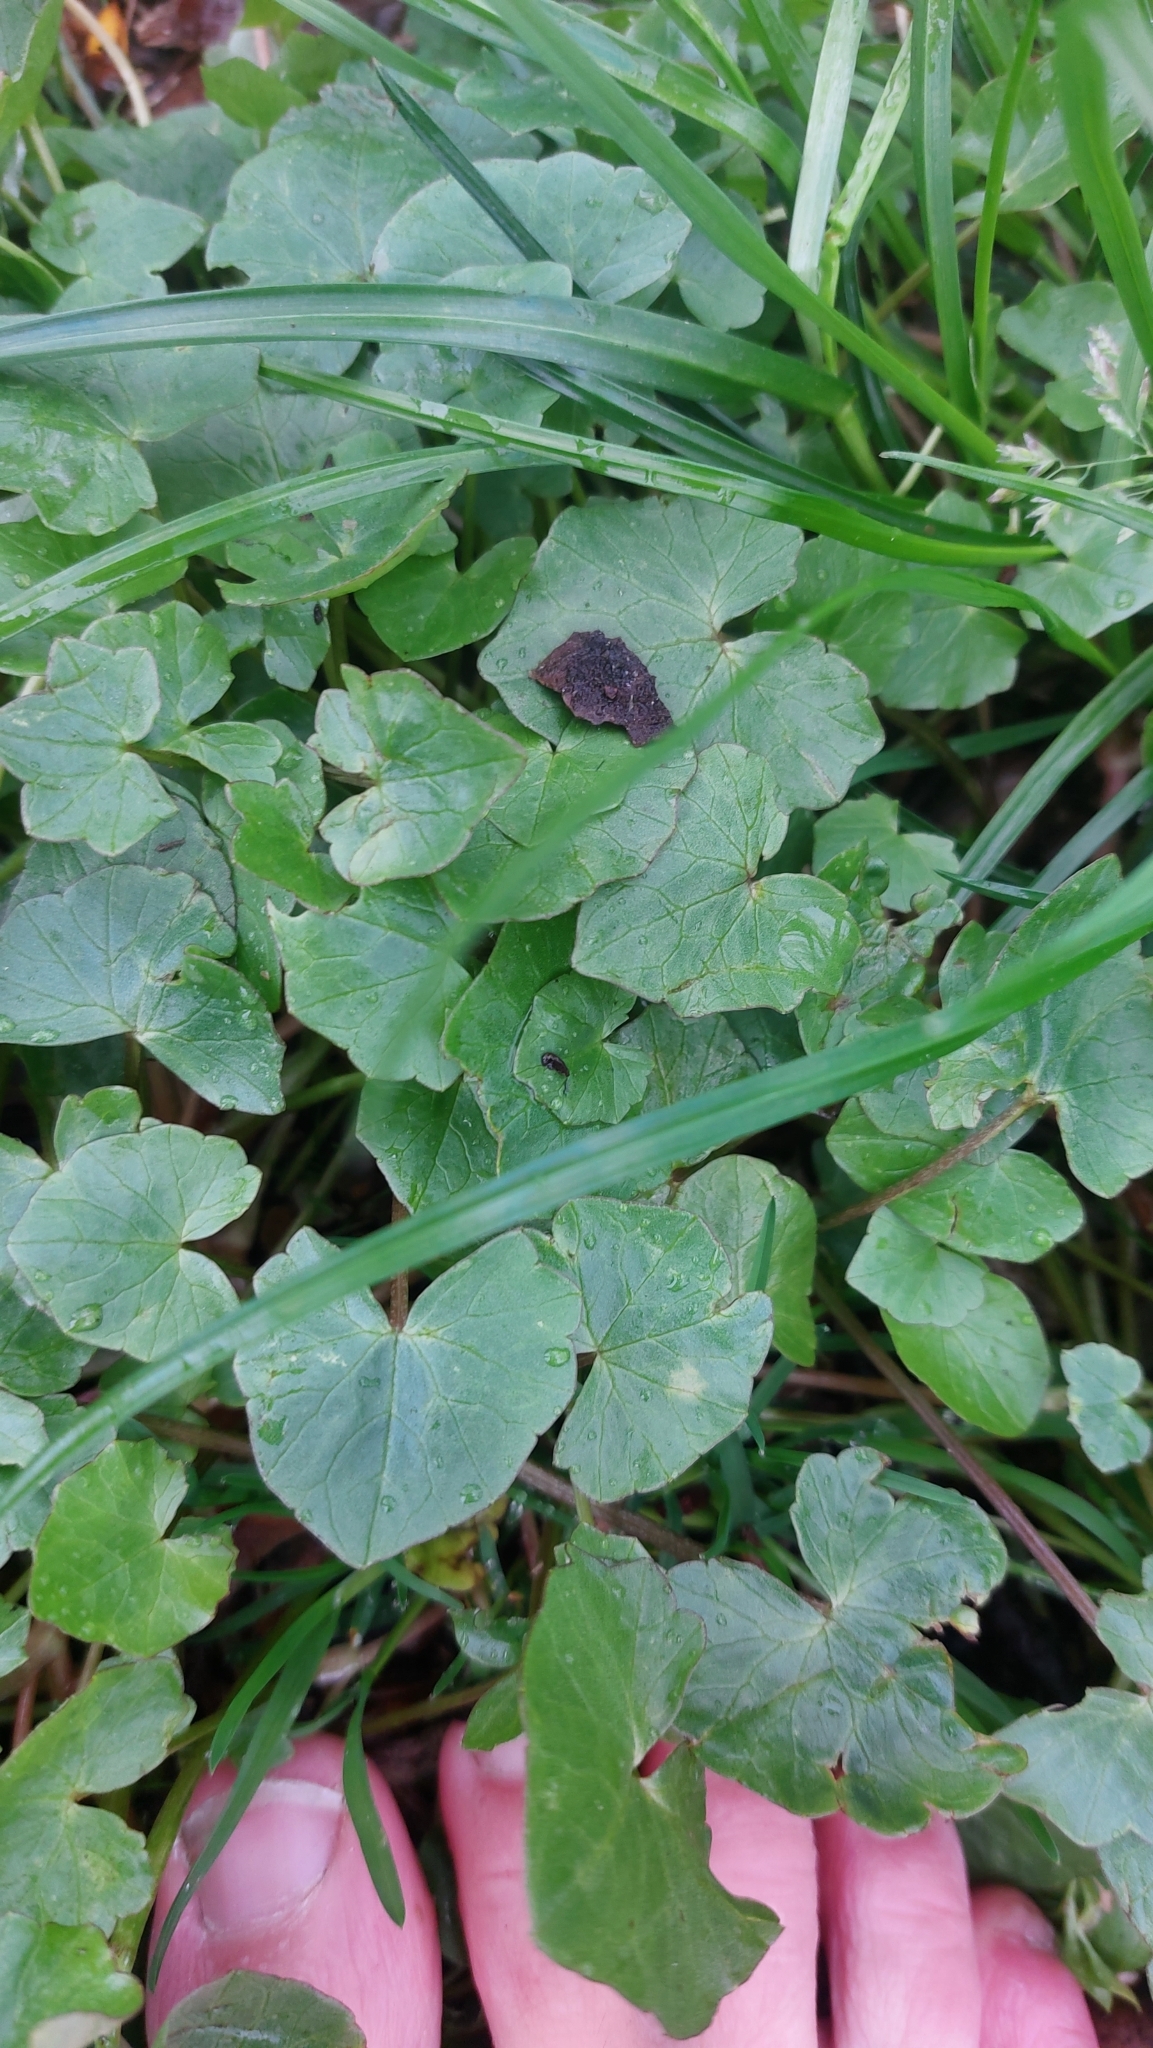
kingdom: Plantae
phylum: Tracheophyta
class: Magnoliopsida
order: Ranunculales
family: Ranunculaceae
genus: Ficaria
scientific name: Ficaria verna
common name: Lesser celandine
